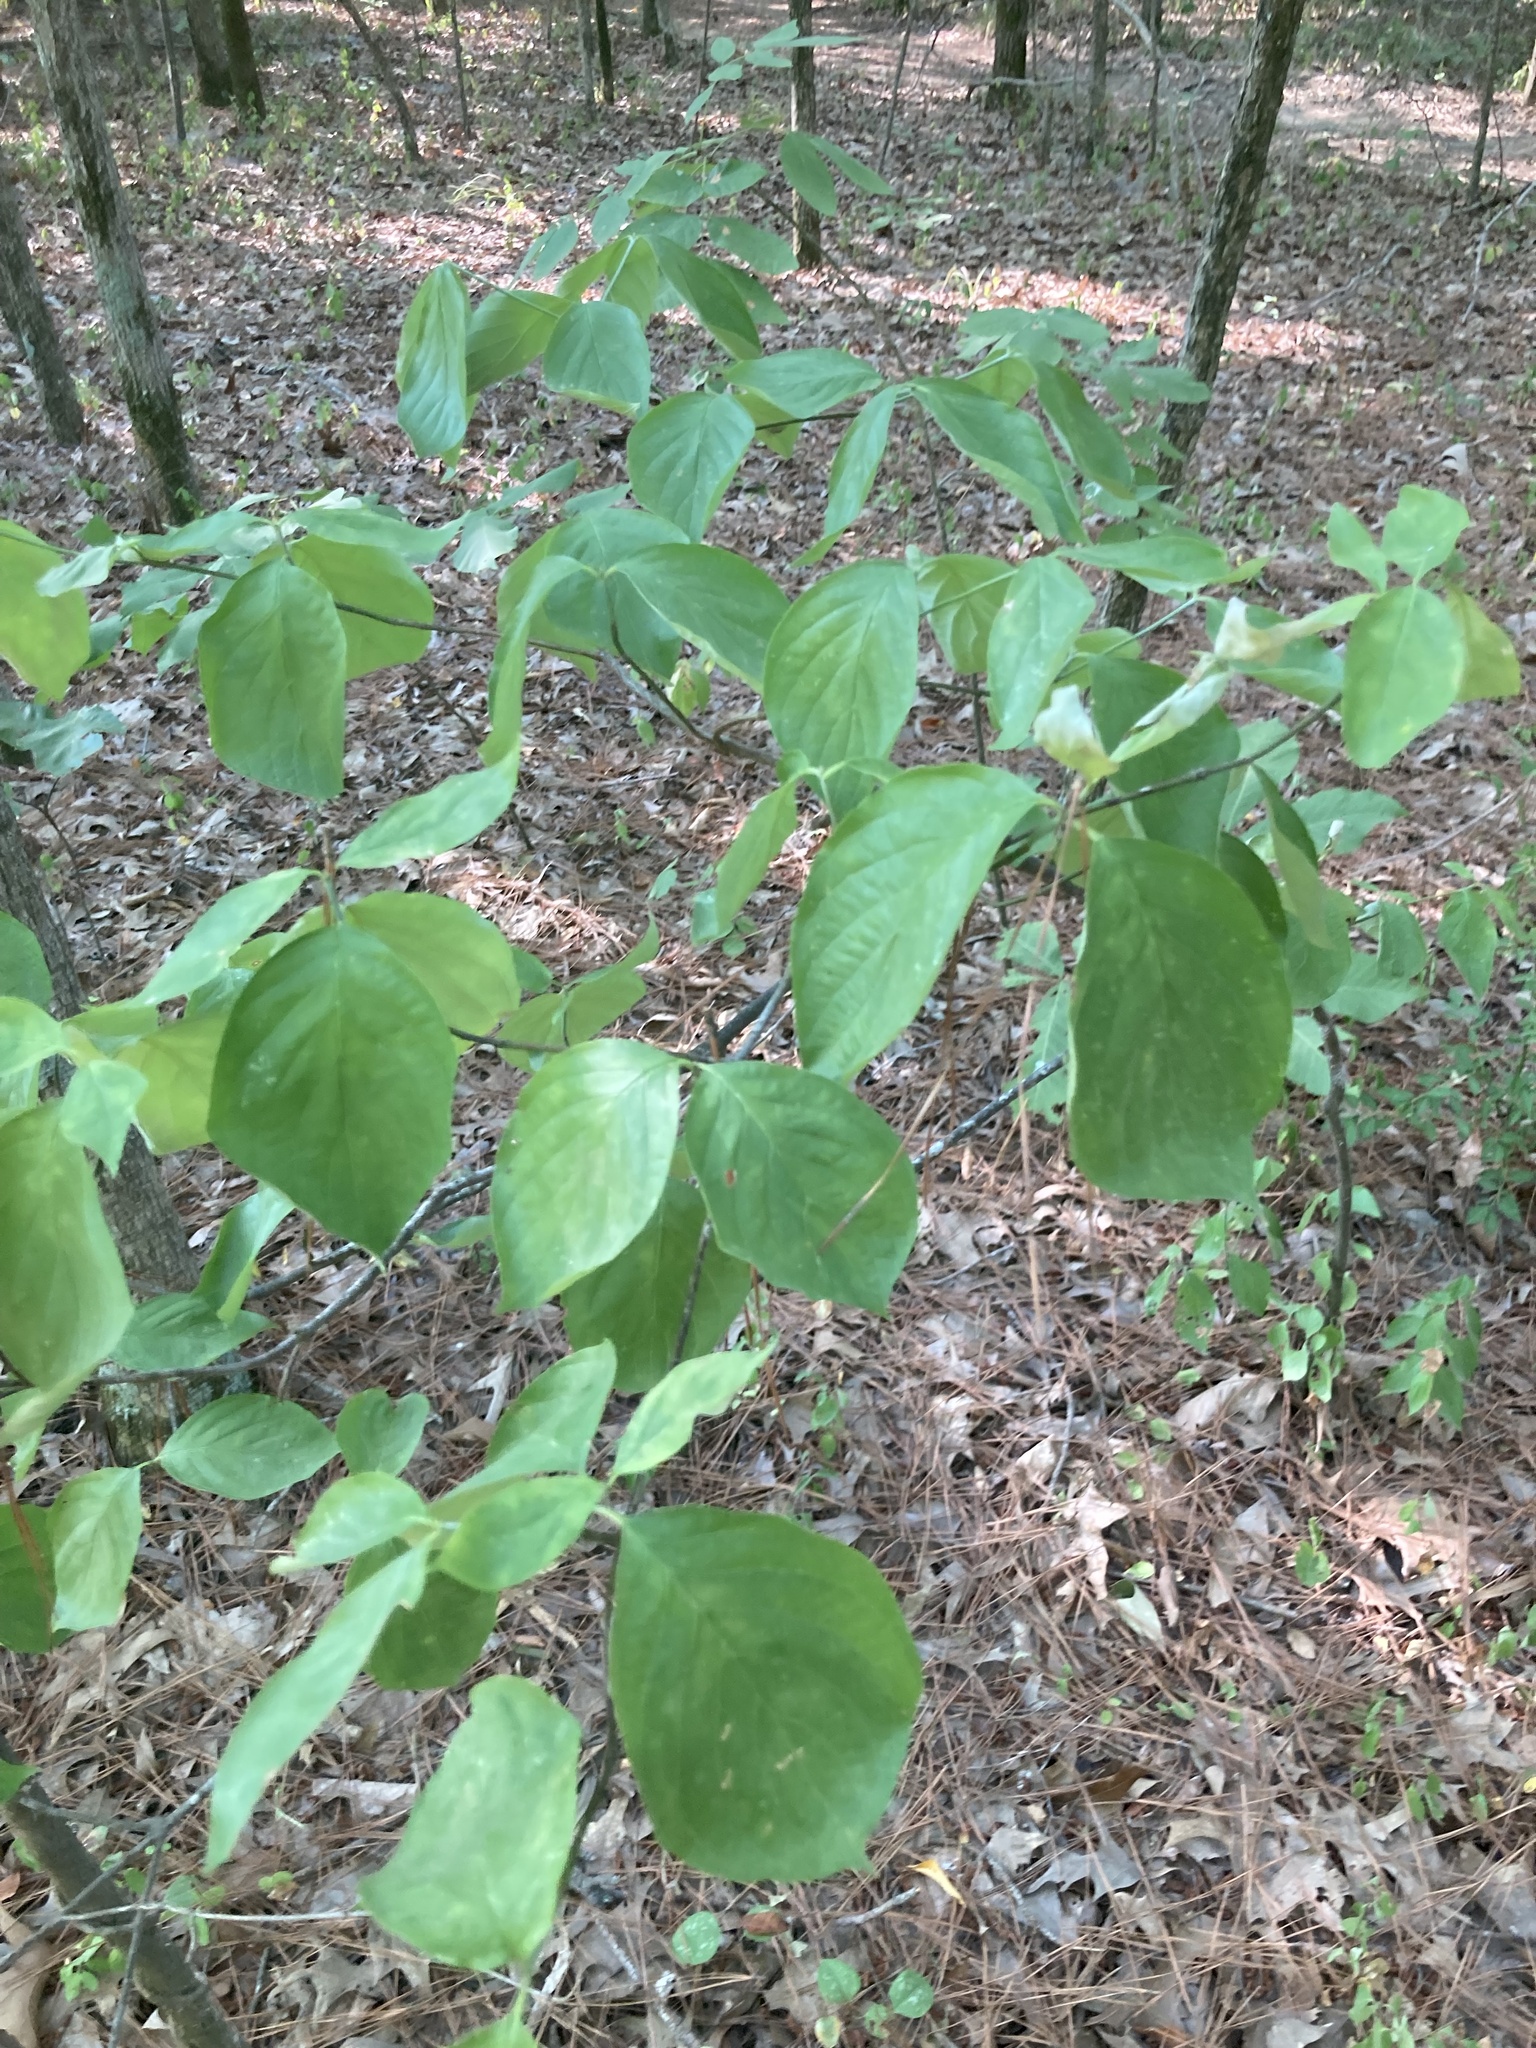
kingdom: Plantae
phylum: Tracheophyta
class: Magnoliopsida
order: Cornales
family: Cornaceae
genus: Cornus
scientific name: Cornus florida
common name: Flowering dogwood
